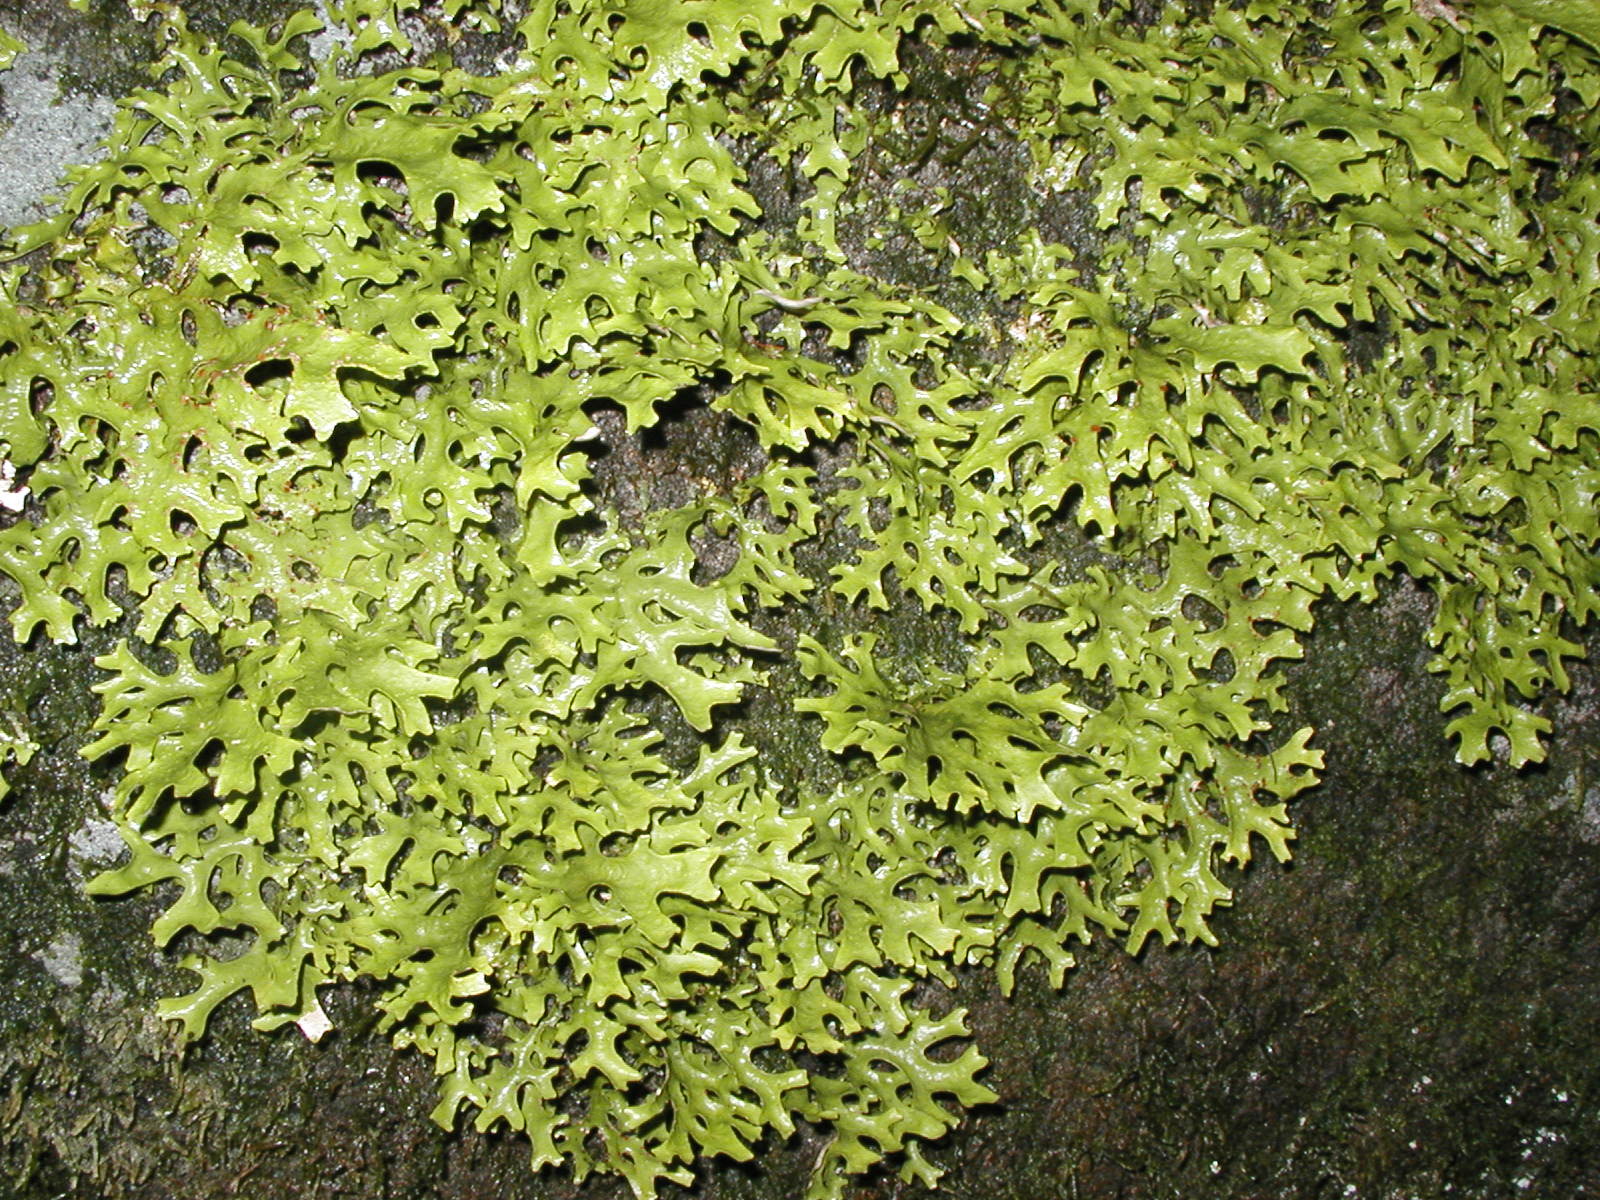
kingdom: Fungi
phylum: Ascomycota
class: Lecanoromycetes
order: Peltigerales
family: Lobariaceae
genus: Sticta
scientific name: Sticta canariensis
